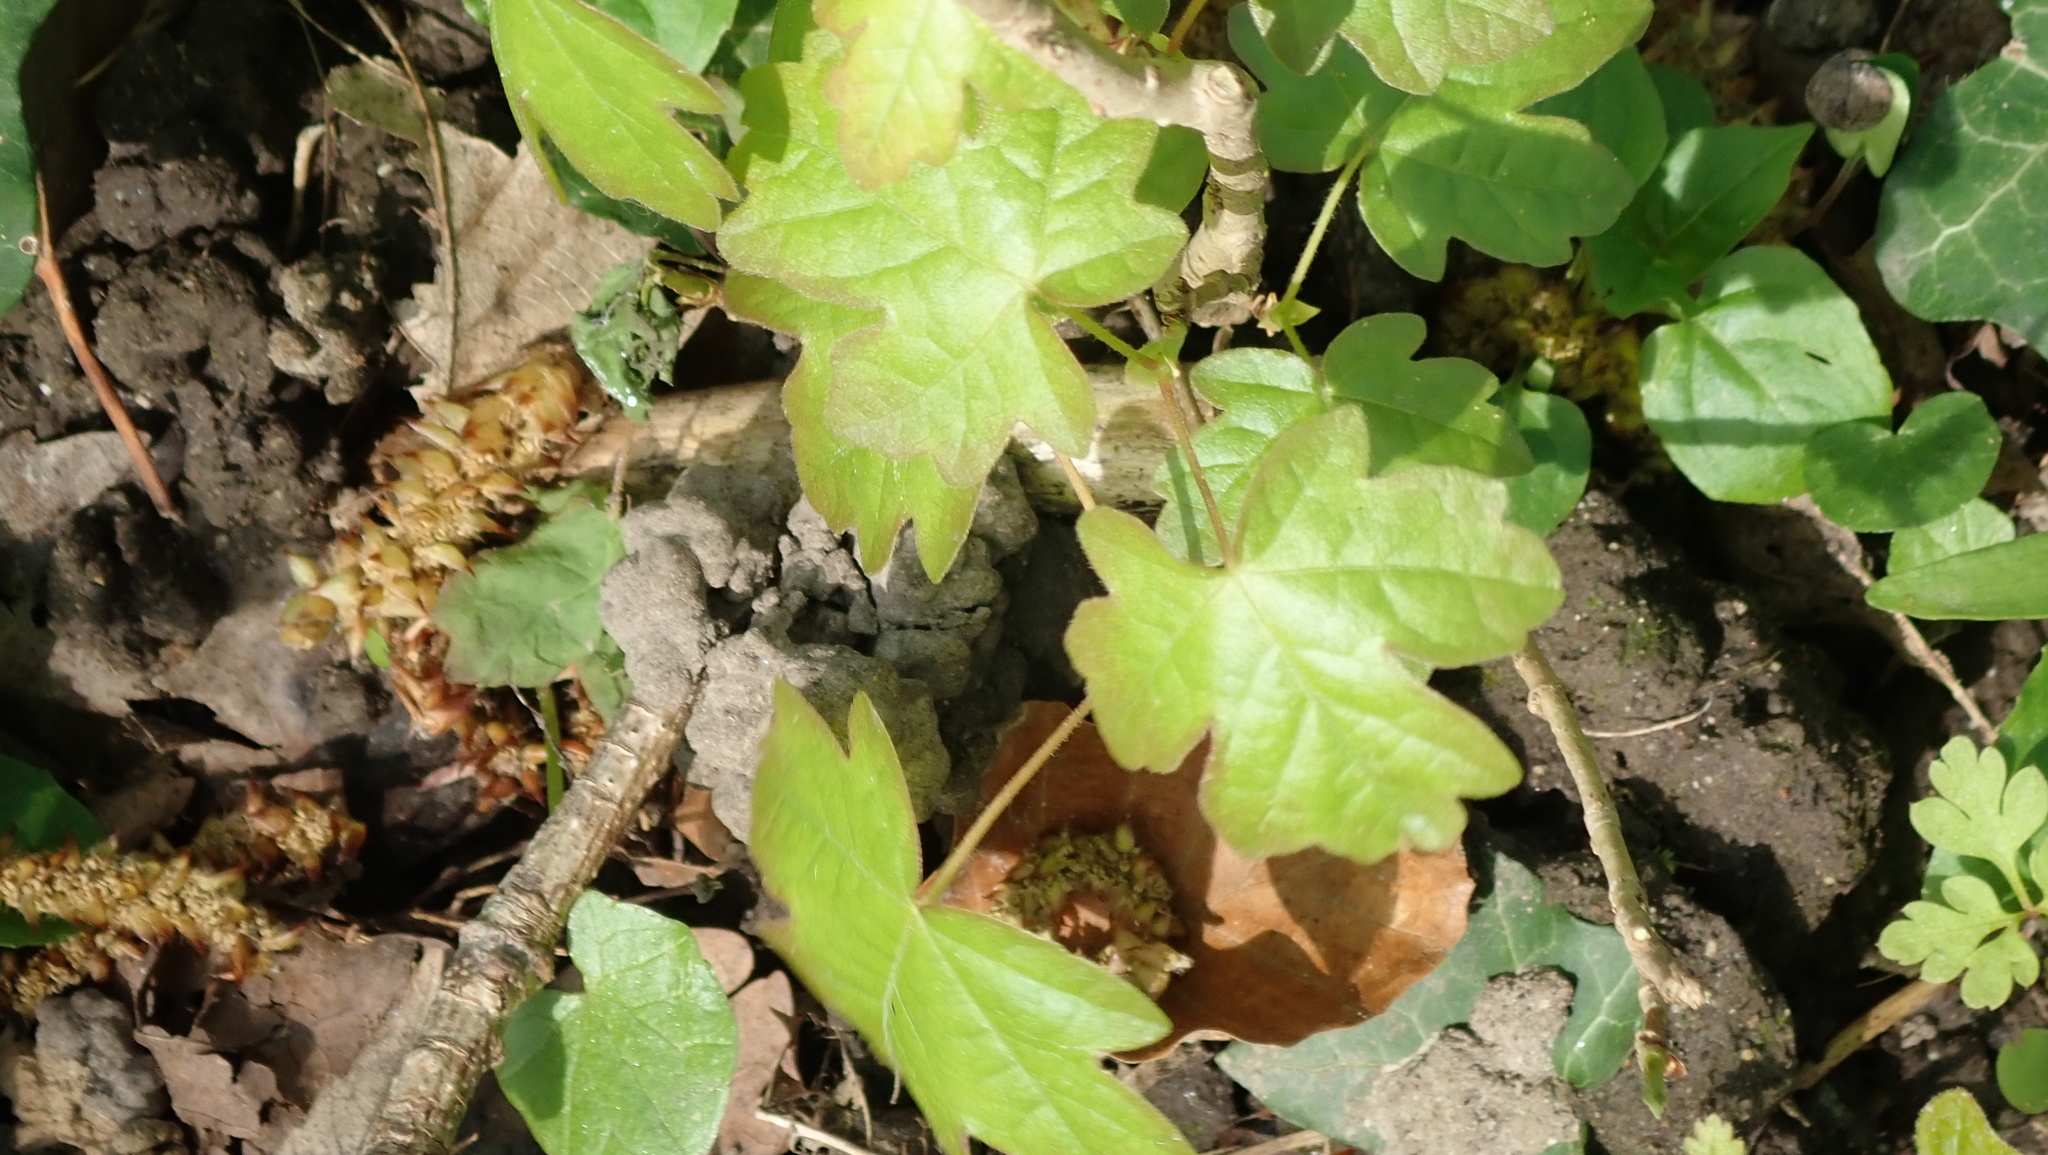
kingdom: Plantae
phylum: Tracheophyta
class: Magnoliopsida
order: Sapindales
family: Sapindaceae
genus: Acer
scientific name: Acer campestre
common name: Field maple
